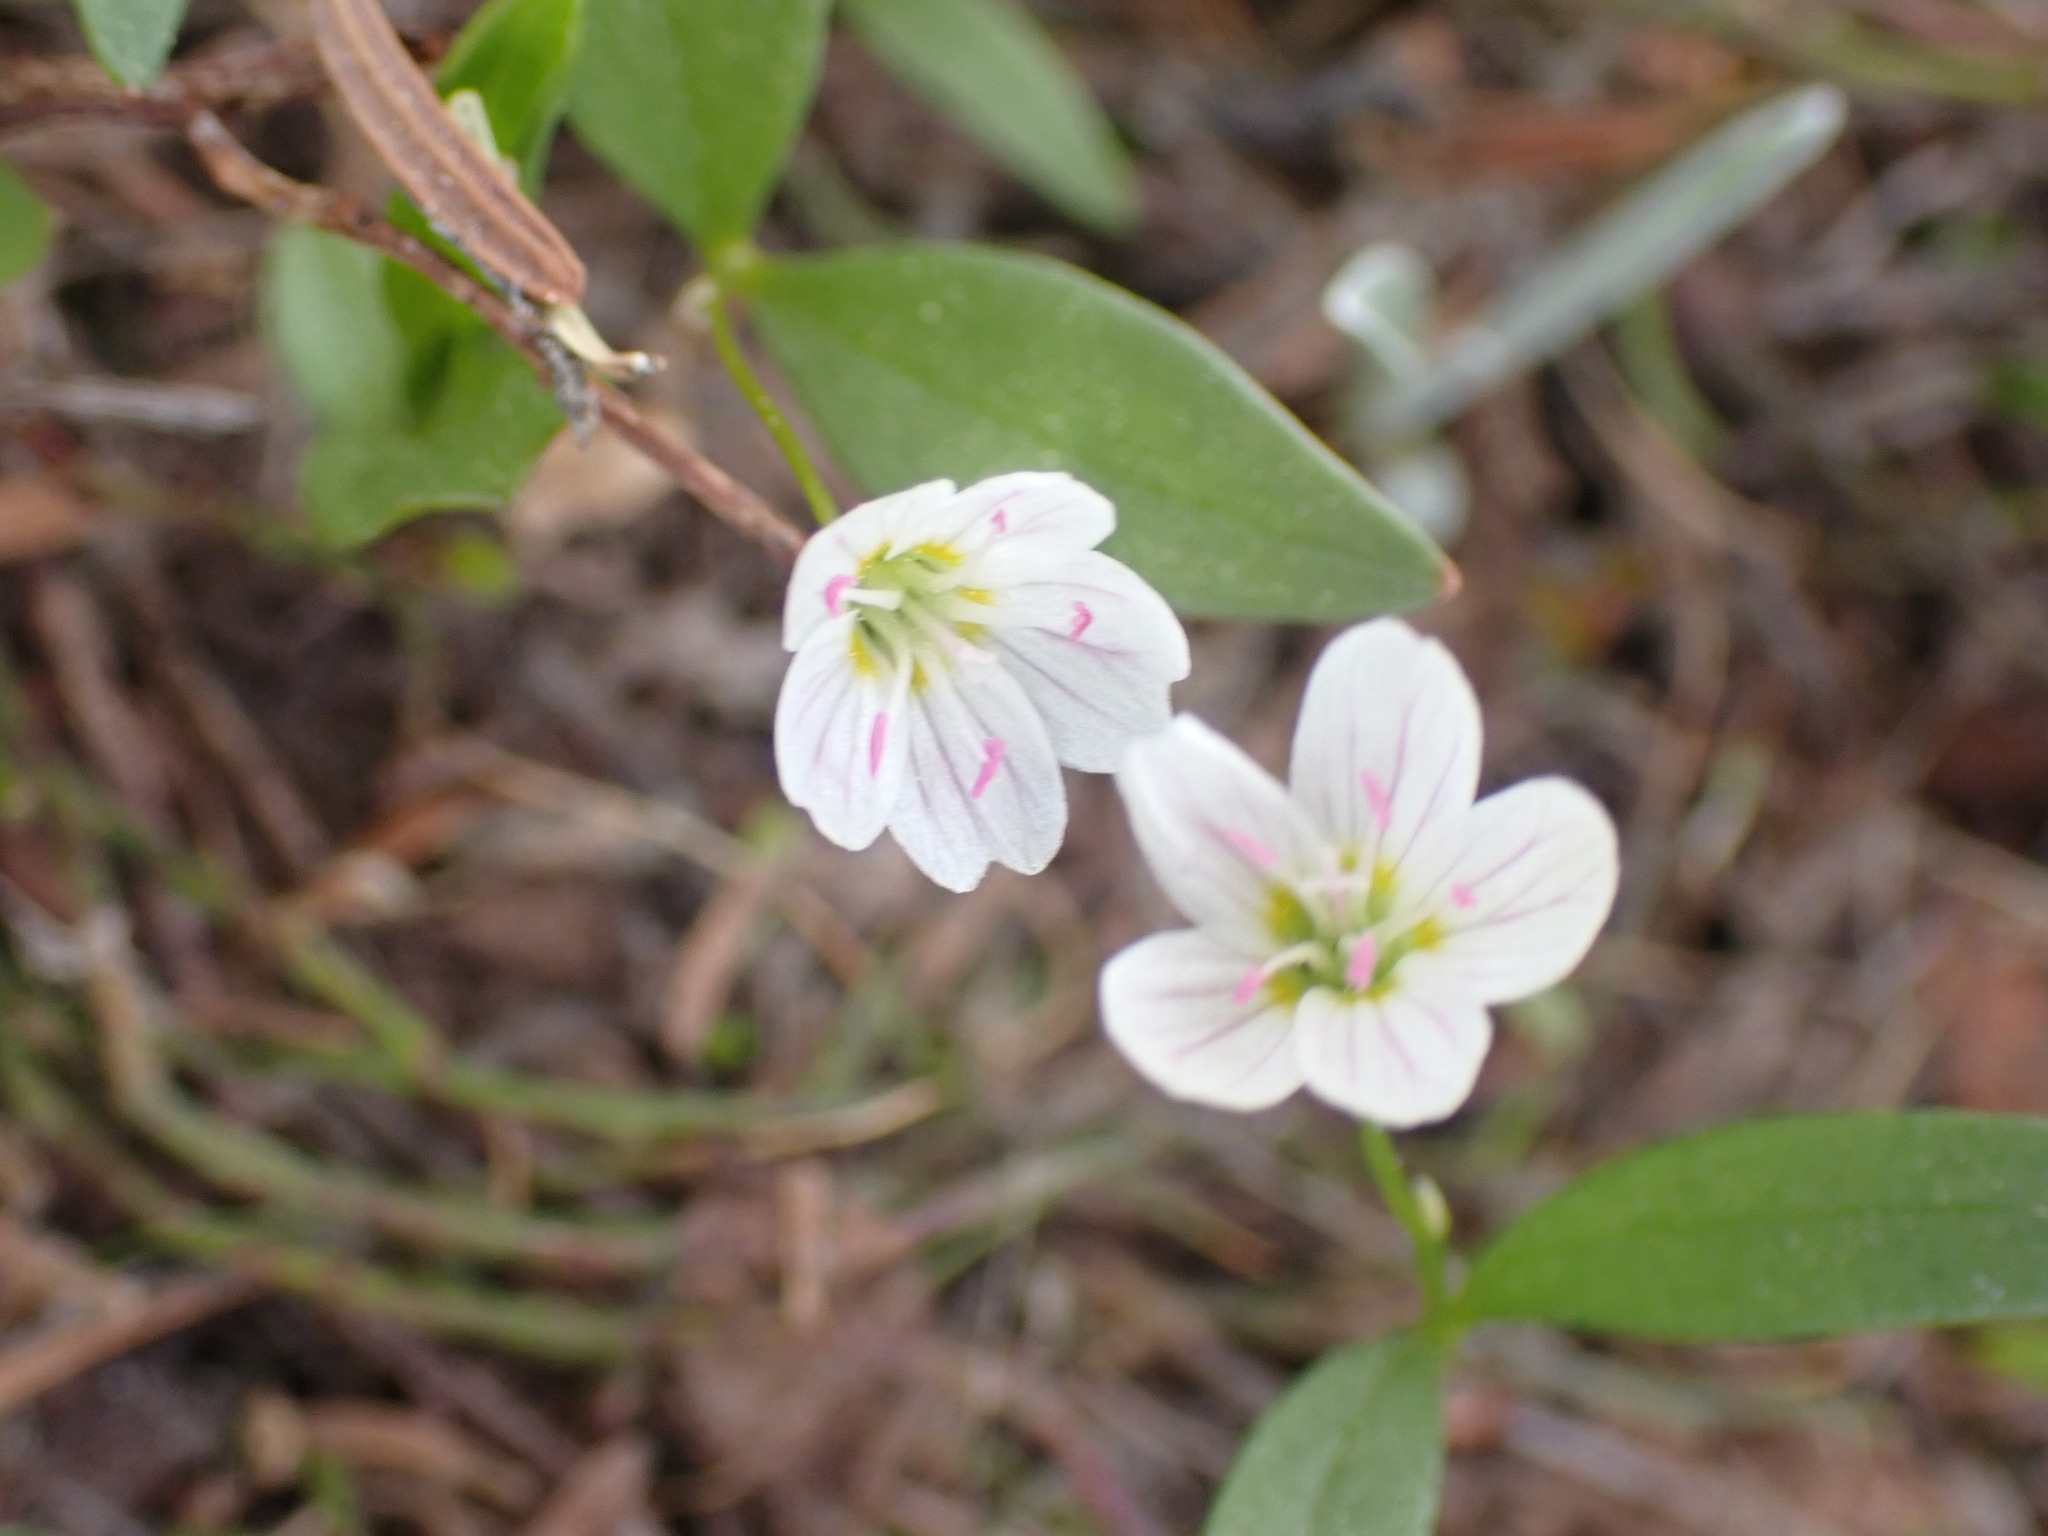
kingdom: Plantae
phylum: Tracheophyta
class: Magnoliopsida
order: Caryophyllales
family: Montiaceae
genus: Claytonia
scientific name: Claytonia lanceolata
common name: Western spring-beauty
